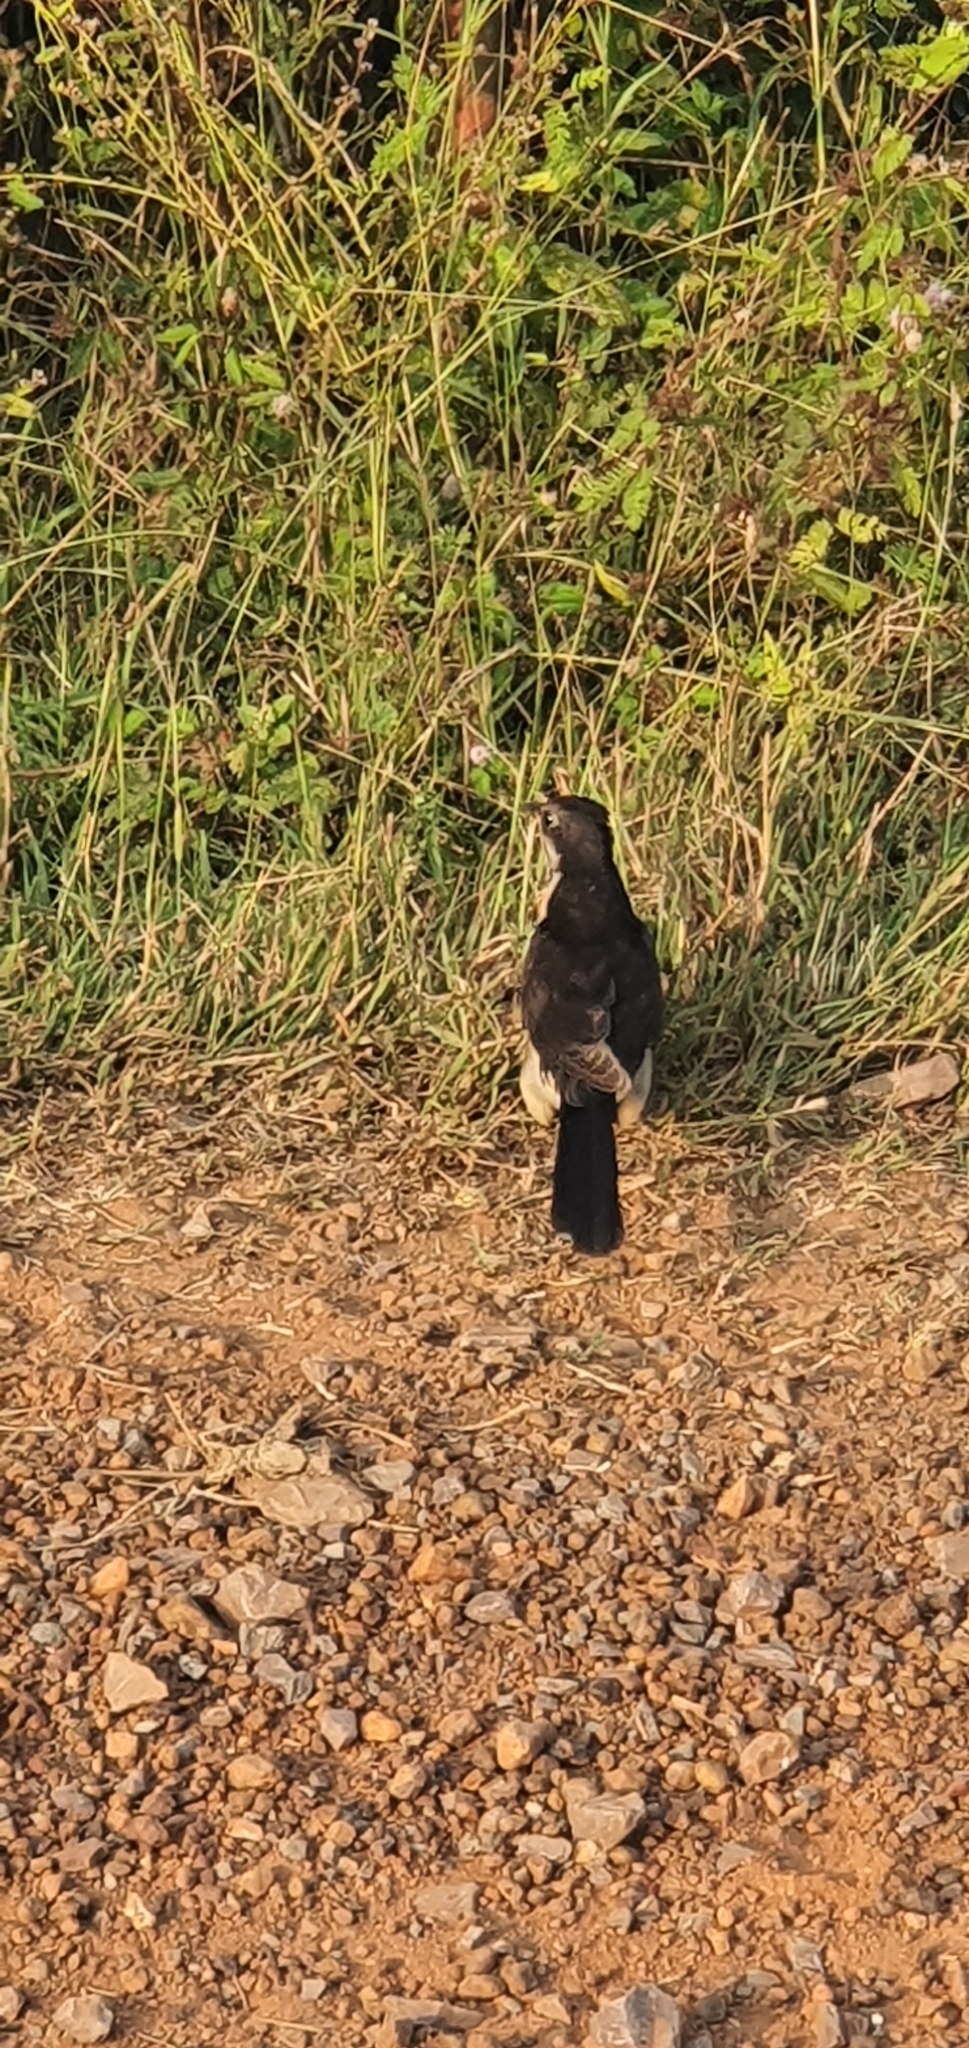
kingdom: Animalia
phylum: Chordata
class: Aves
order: Cuculiformes
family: Cuculidae
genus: Clamator
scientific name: Clamator jacobinus
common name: Jacobin cuckoo
